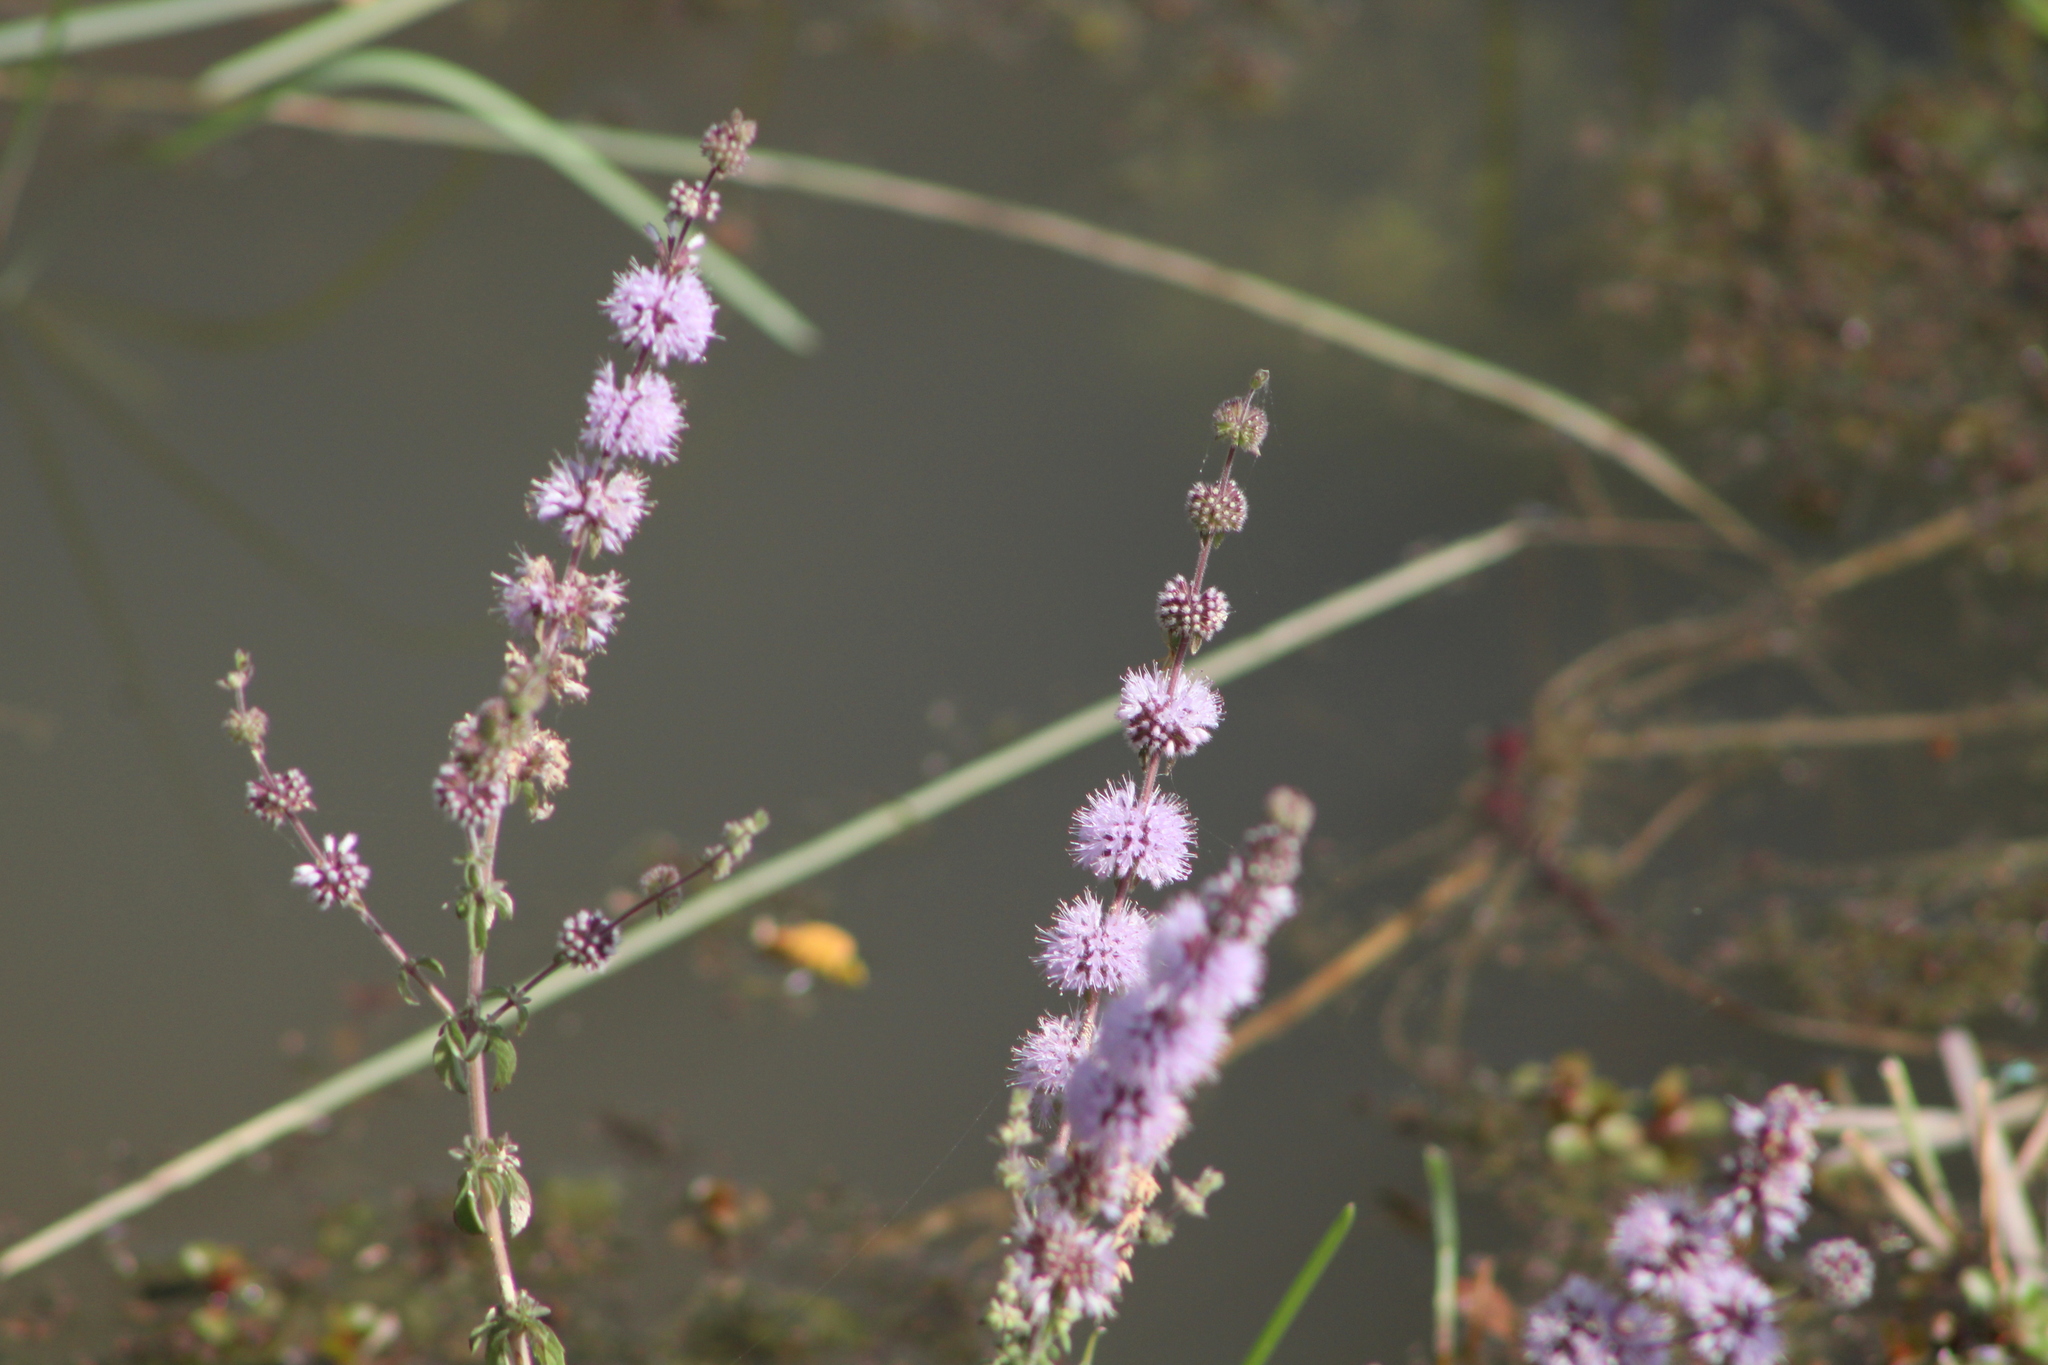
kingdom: Plantae
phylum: Tracheophyta
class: Magnoliopsida
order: Lamiales
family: Lamiaceae
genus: Mentha
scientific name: Mentha pulegium
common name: Pennyroyal
